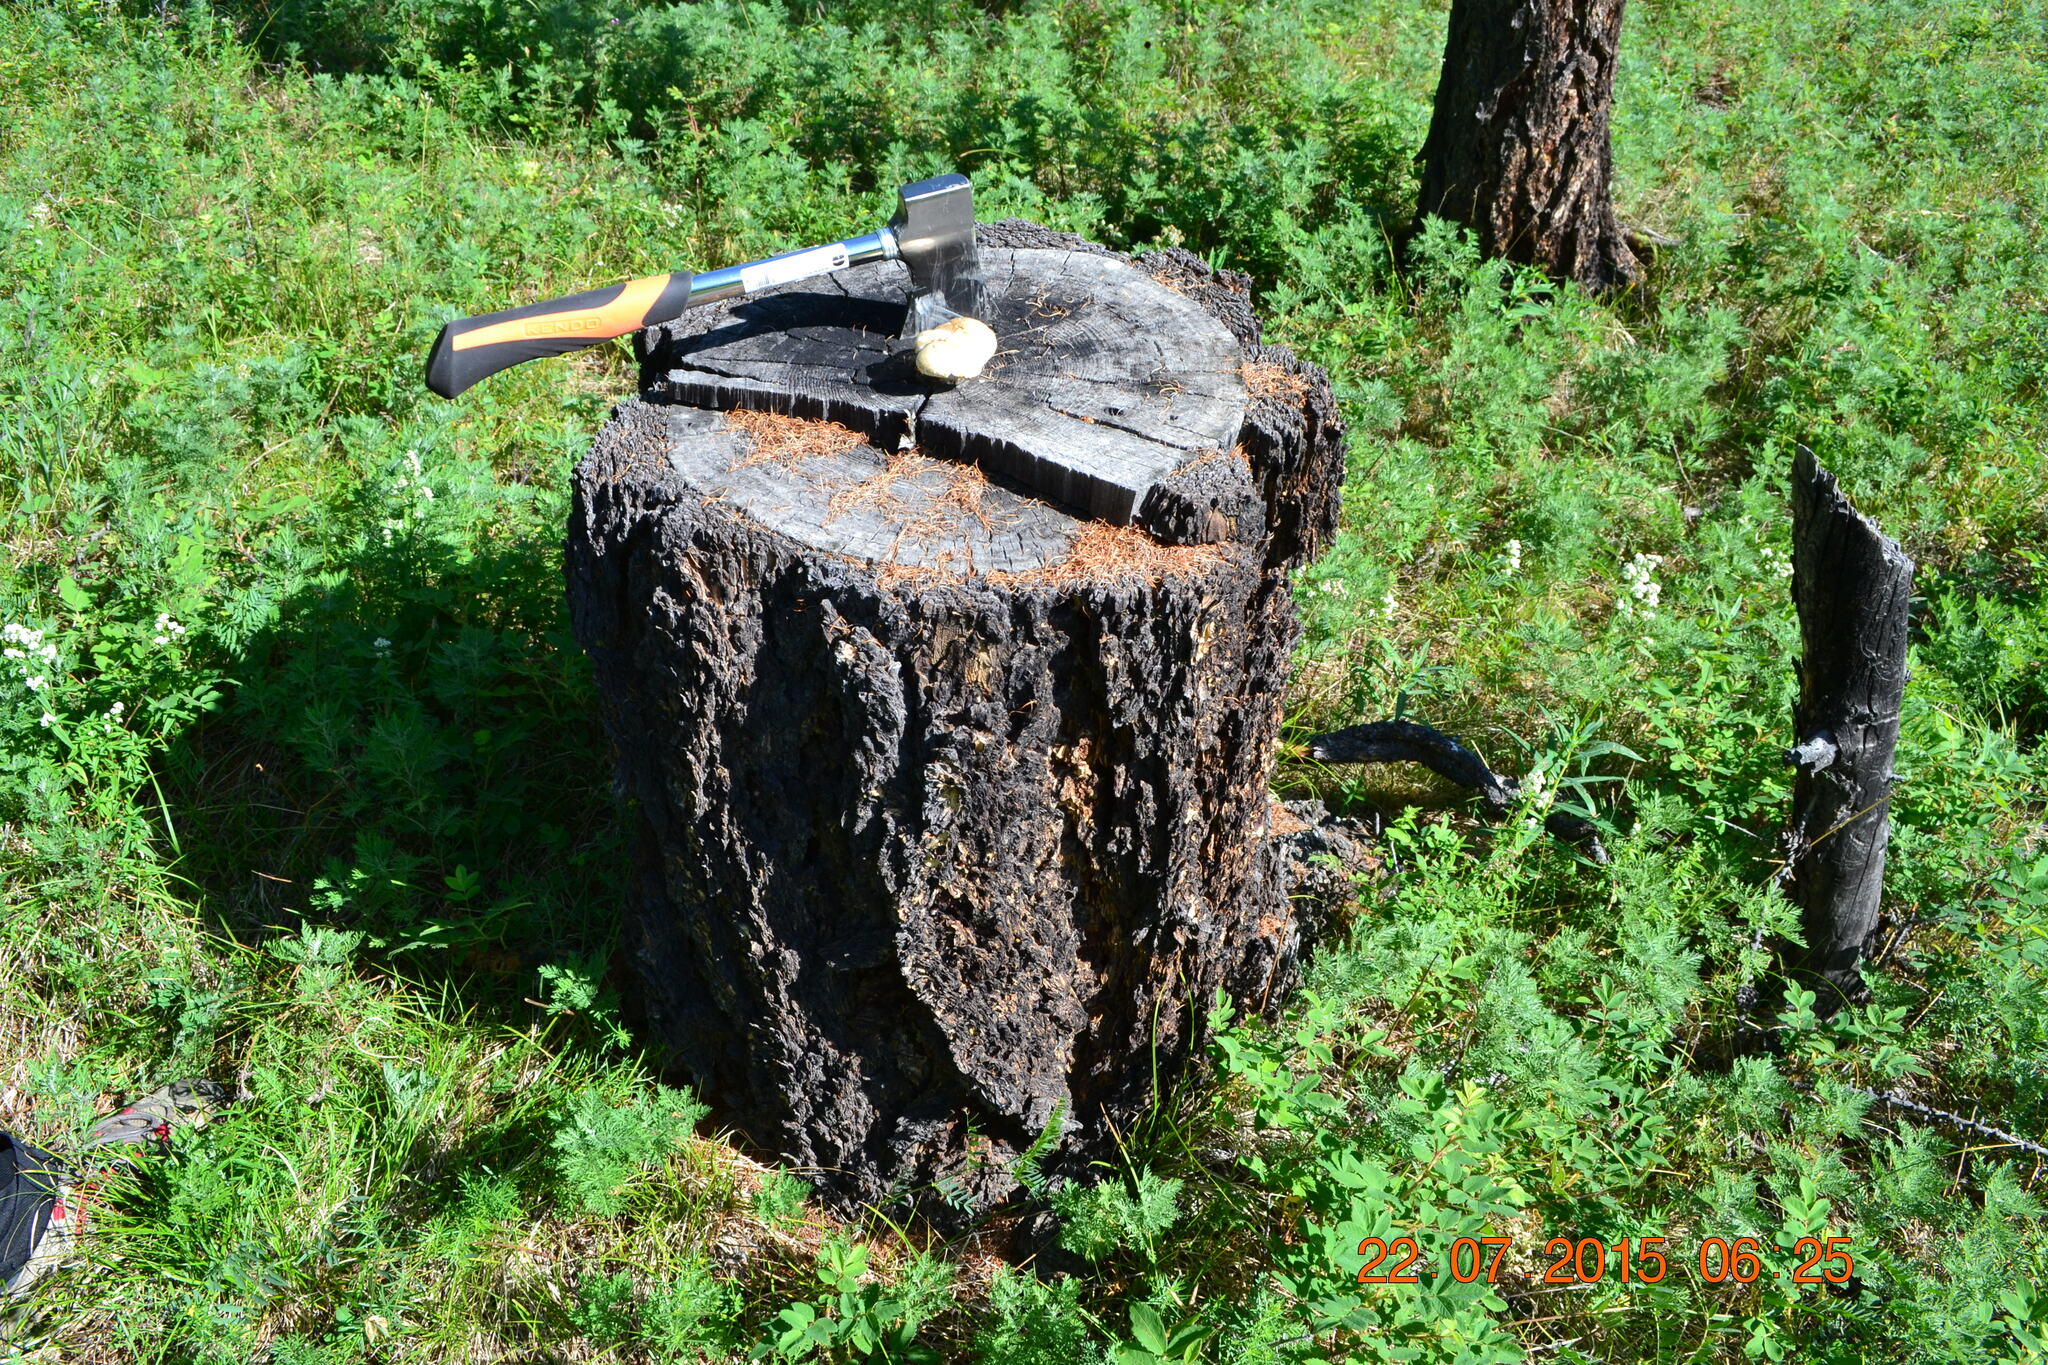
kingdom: Fungi
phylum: Basidiomycota
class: Agaricomycetes
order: Gloeophyllales
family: Gloeophyllaceae
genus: Neolentinus
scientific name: Neolentinus lepideus
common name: Scaly sawgill
